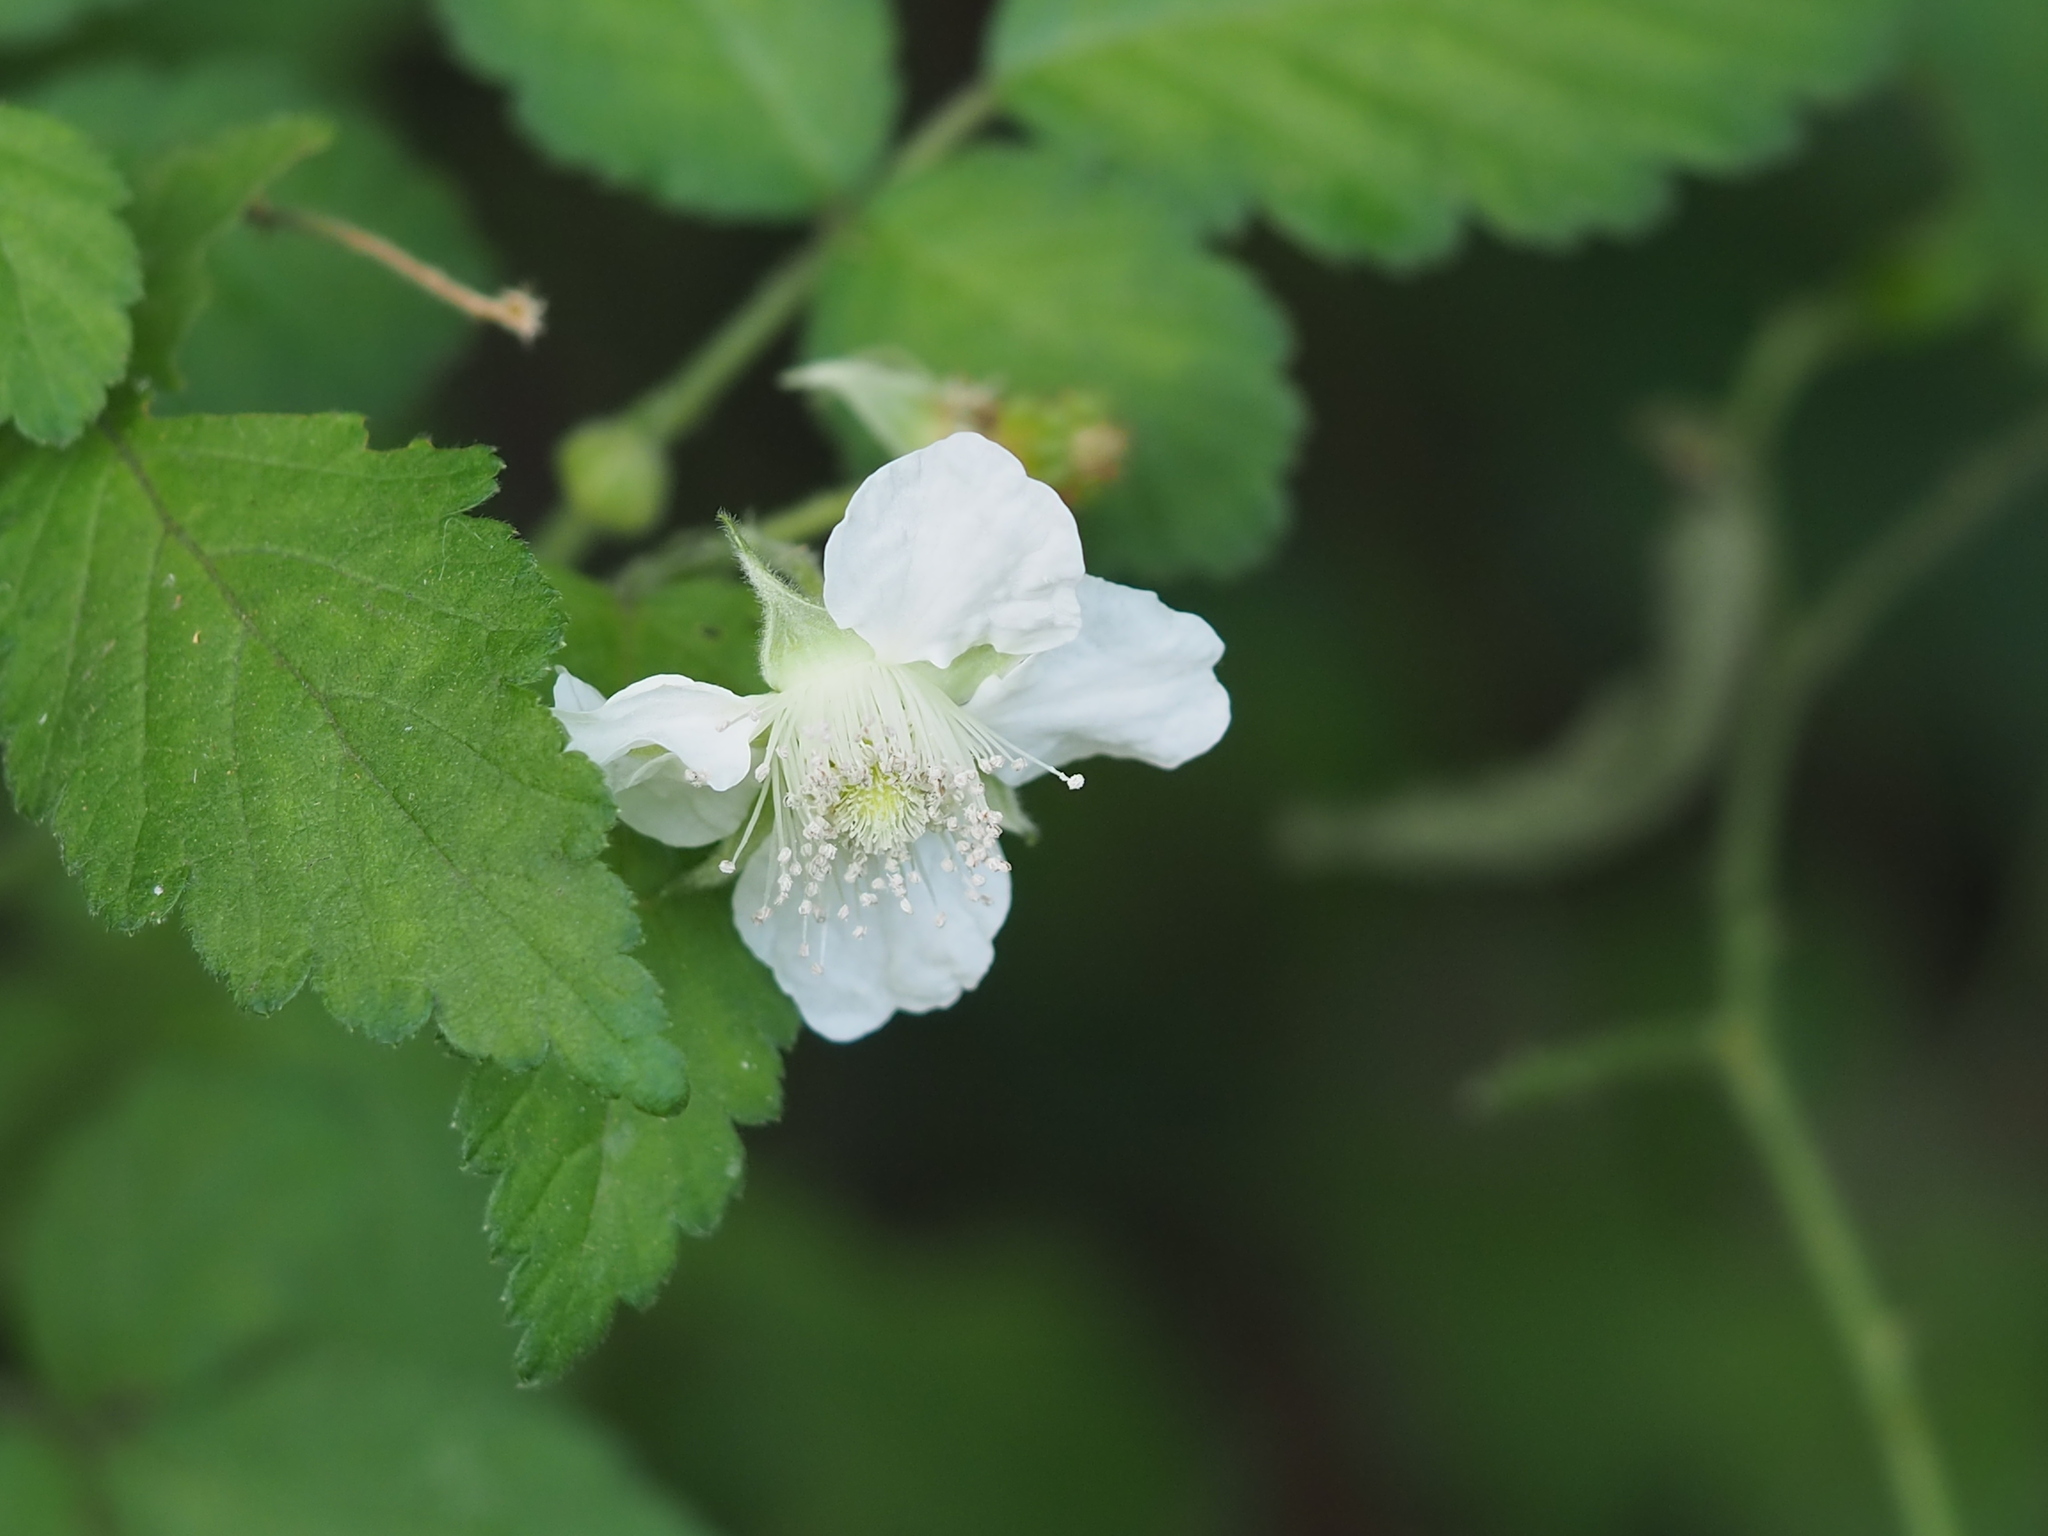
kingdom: Plantae
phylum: Tracheophyta
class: Magnoliopsida
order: Rosales
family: Rosaceae
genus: Rubus
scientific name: Rubus rosifolius
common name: Roseleaf raspberry
